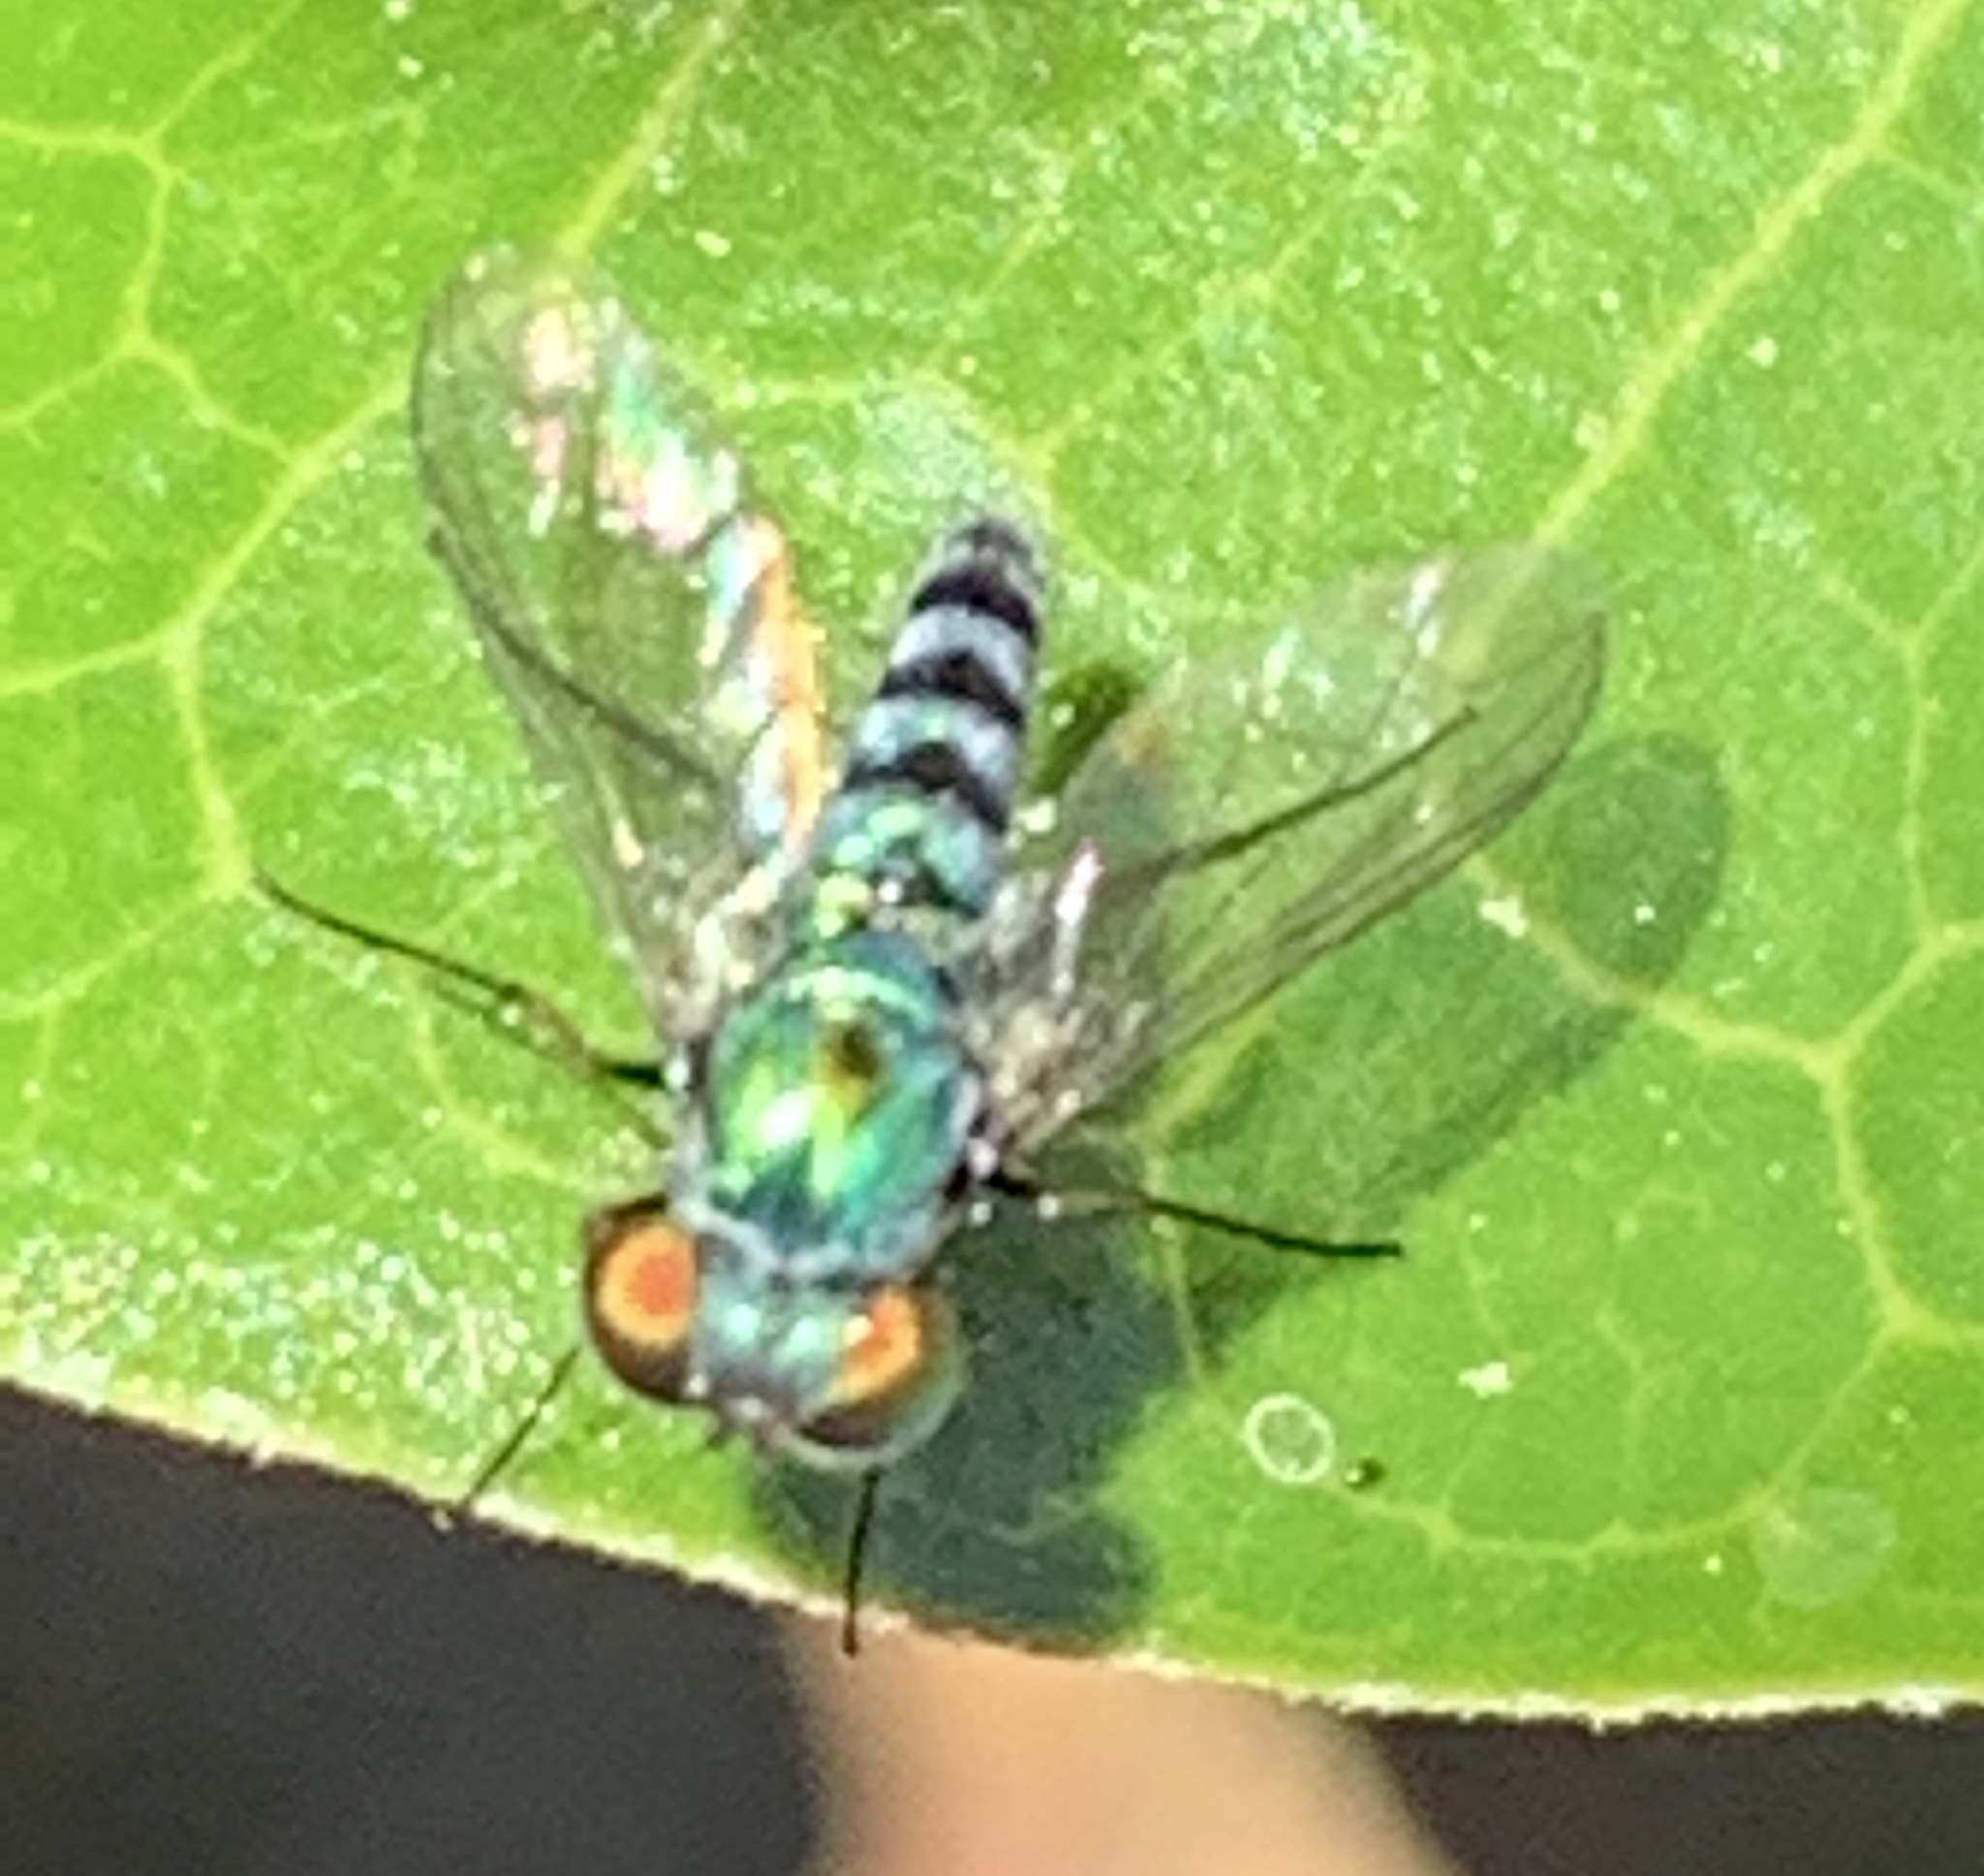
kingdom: Animalia
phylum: Arthropoda
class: Insecta
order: Diptera
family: Dolichopodidae
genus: Condylostylus
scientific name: Condylostylus pruinosus
